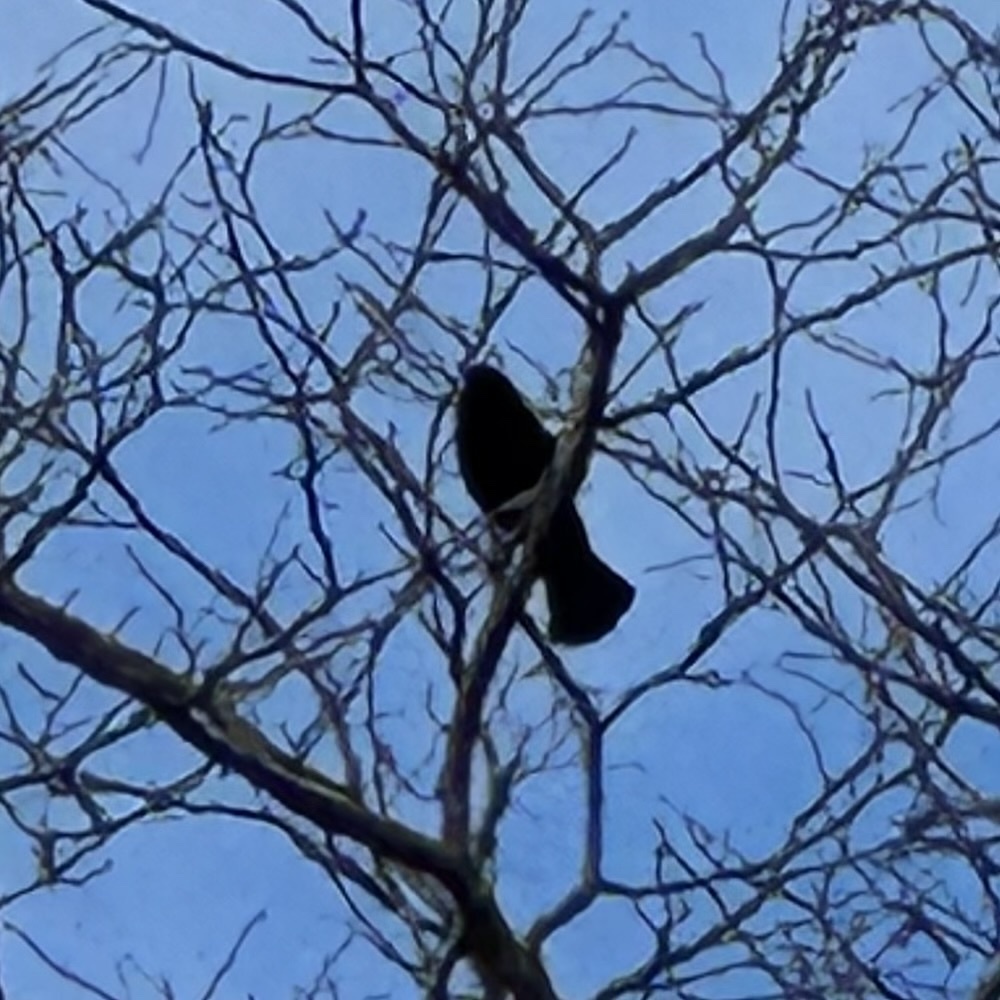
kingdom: Animalia
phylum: Chordata
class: Aves
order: Passeriformes
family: Icteridae
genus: Agelaius
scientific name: Agelaius phoeniceus
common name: Red-winged blackbird
